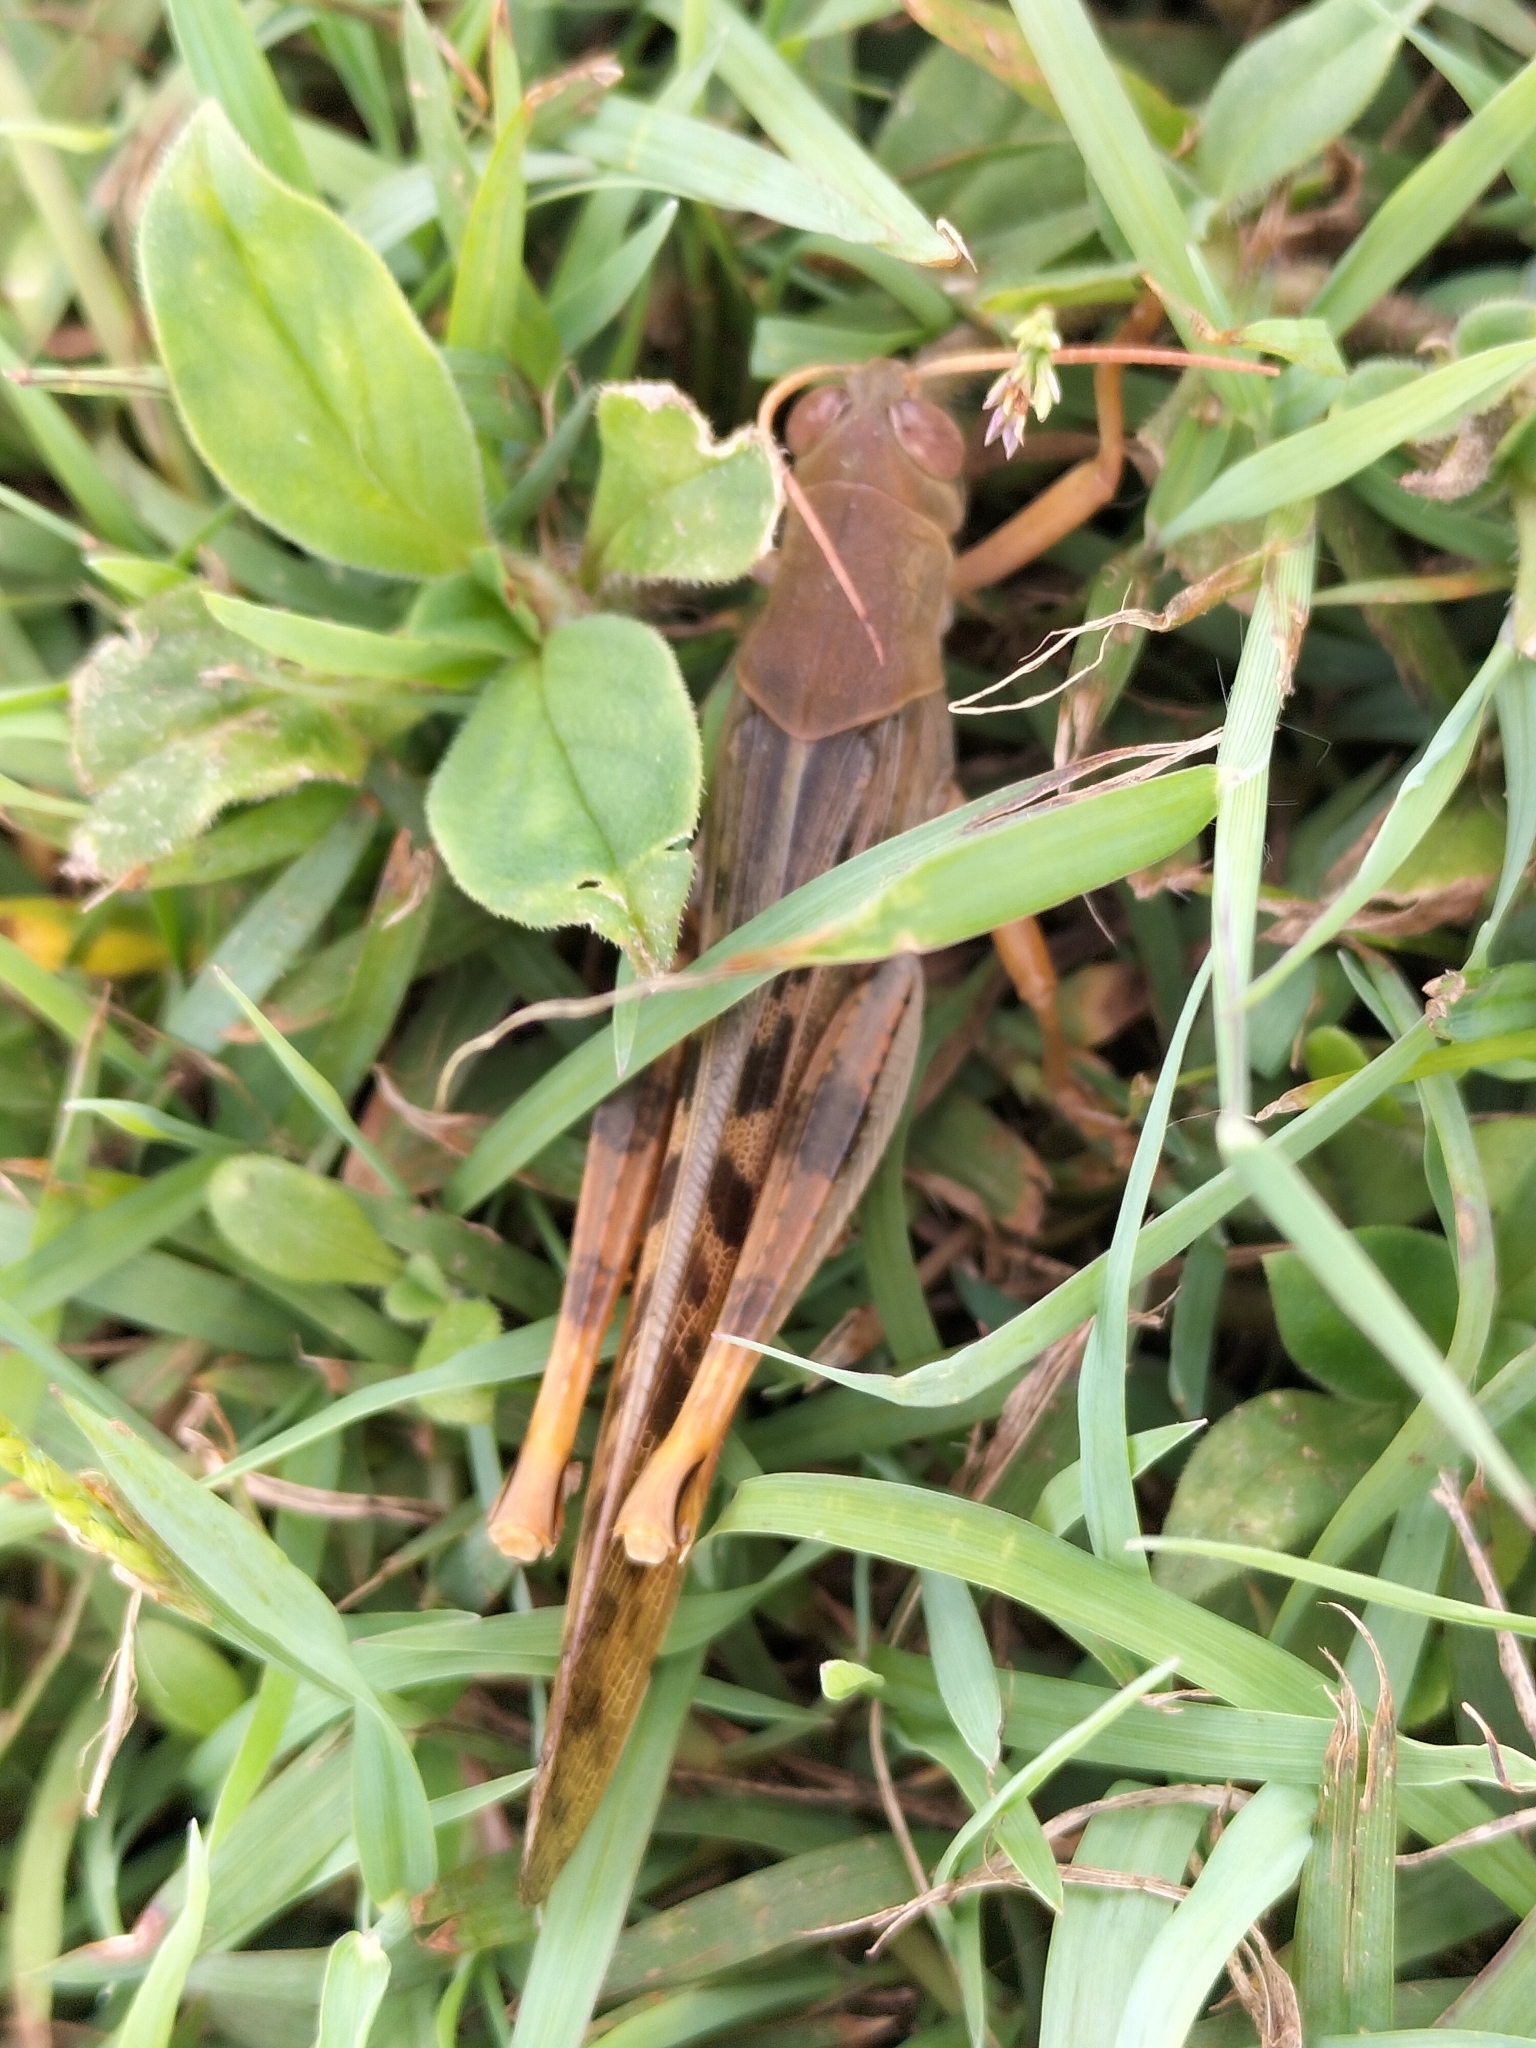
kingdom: Animalia
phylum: Arthropoda
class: Insecta
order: Orthoptera
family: Acrididae
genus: Austracris
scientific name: Austracris proxima
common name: Confusing spur-throated locust
